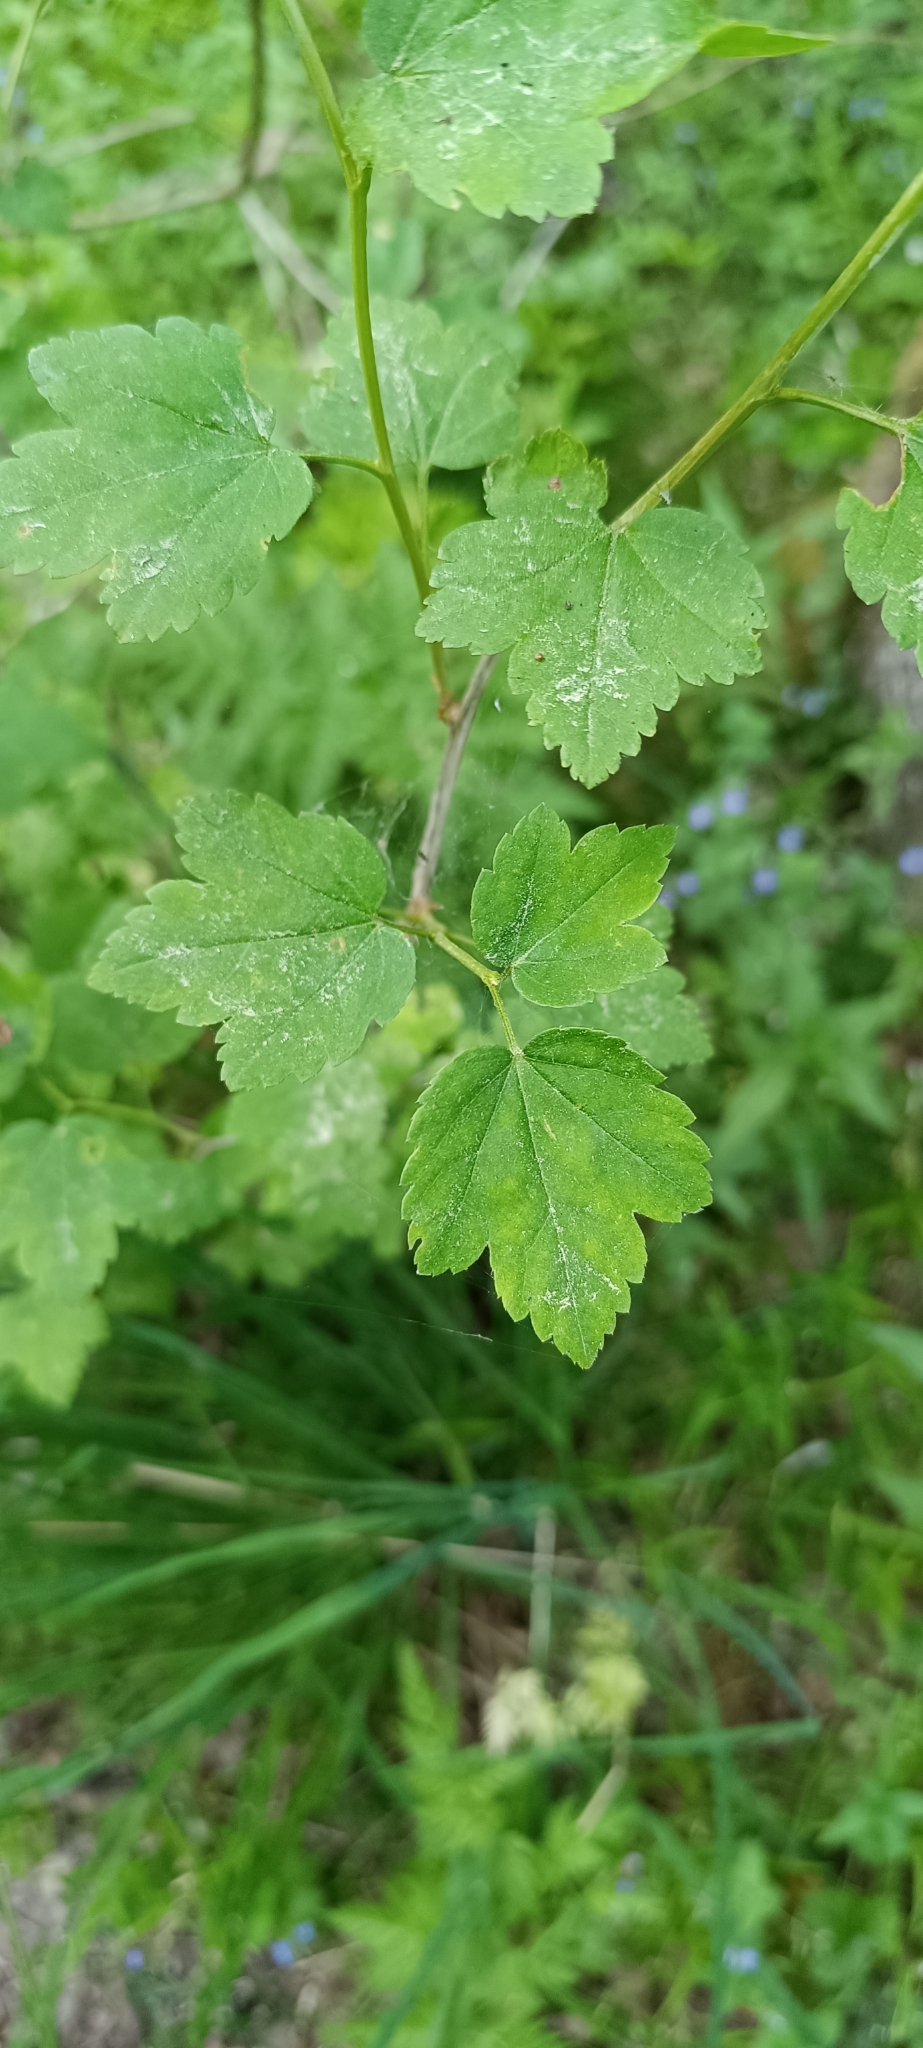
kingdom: Plantae
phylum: Tracheophyta
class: Magnoliopsida
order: Saxifragales
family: Grossulariaceae
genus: Ribes
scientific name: Ribes alpinum
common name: Alpine currant
